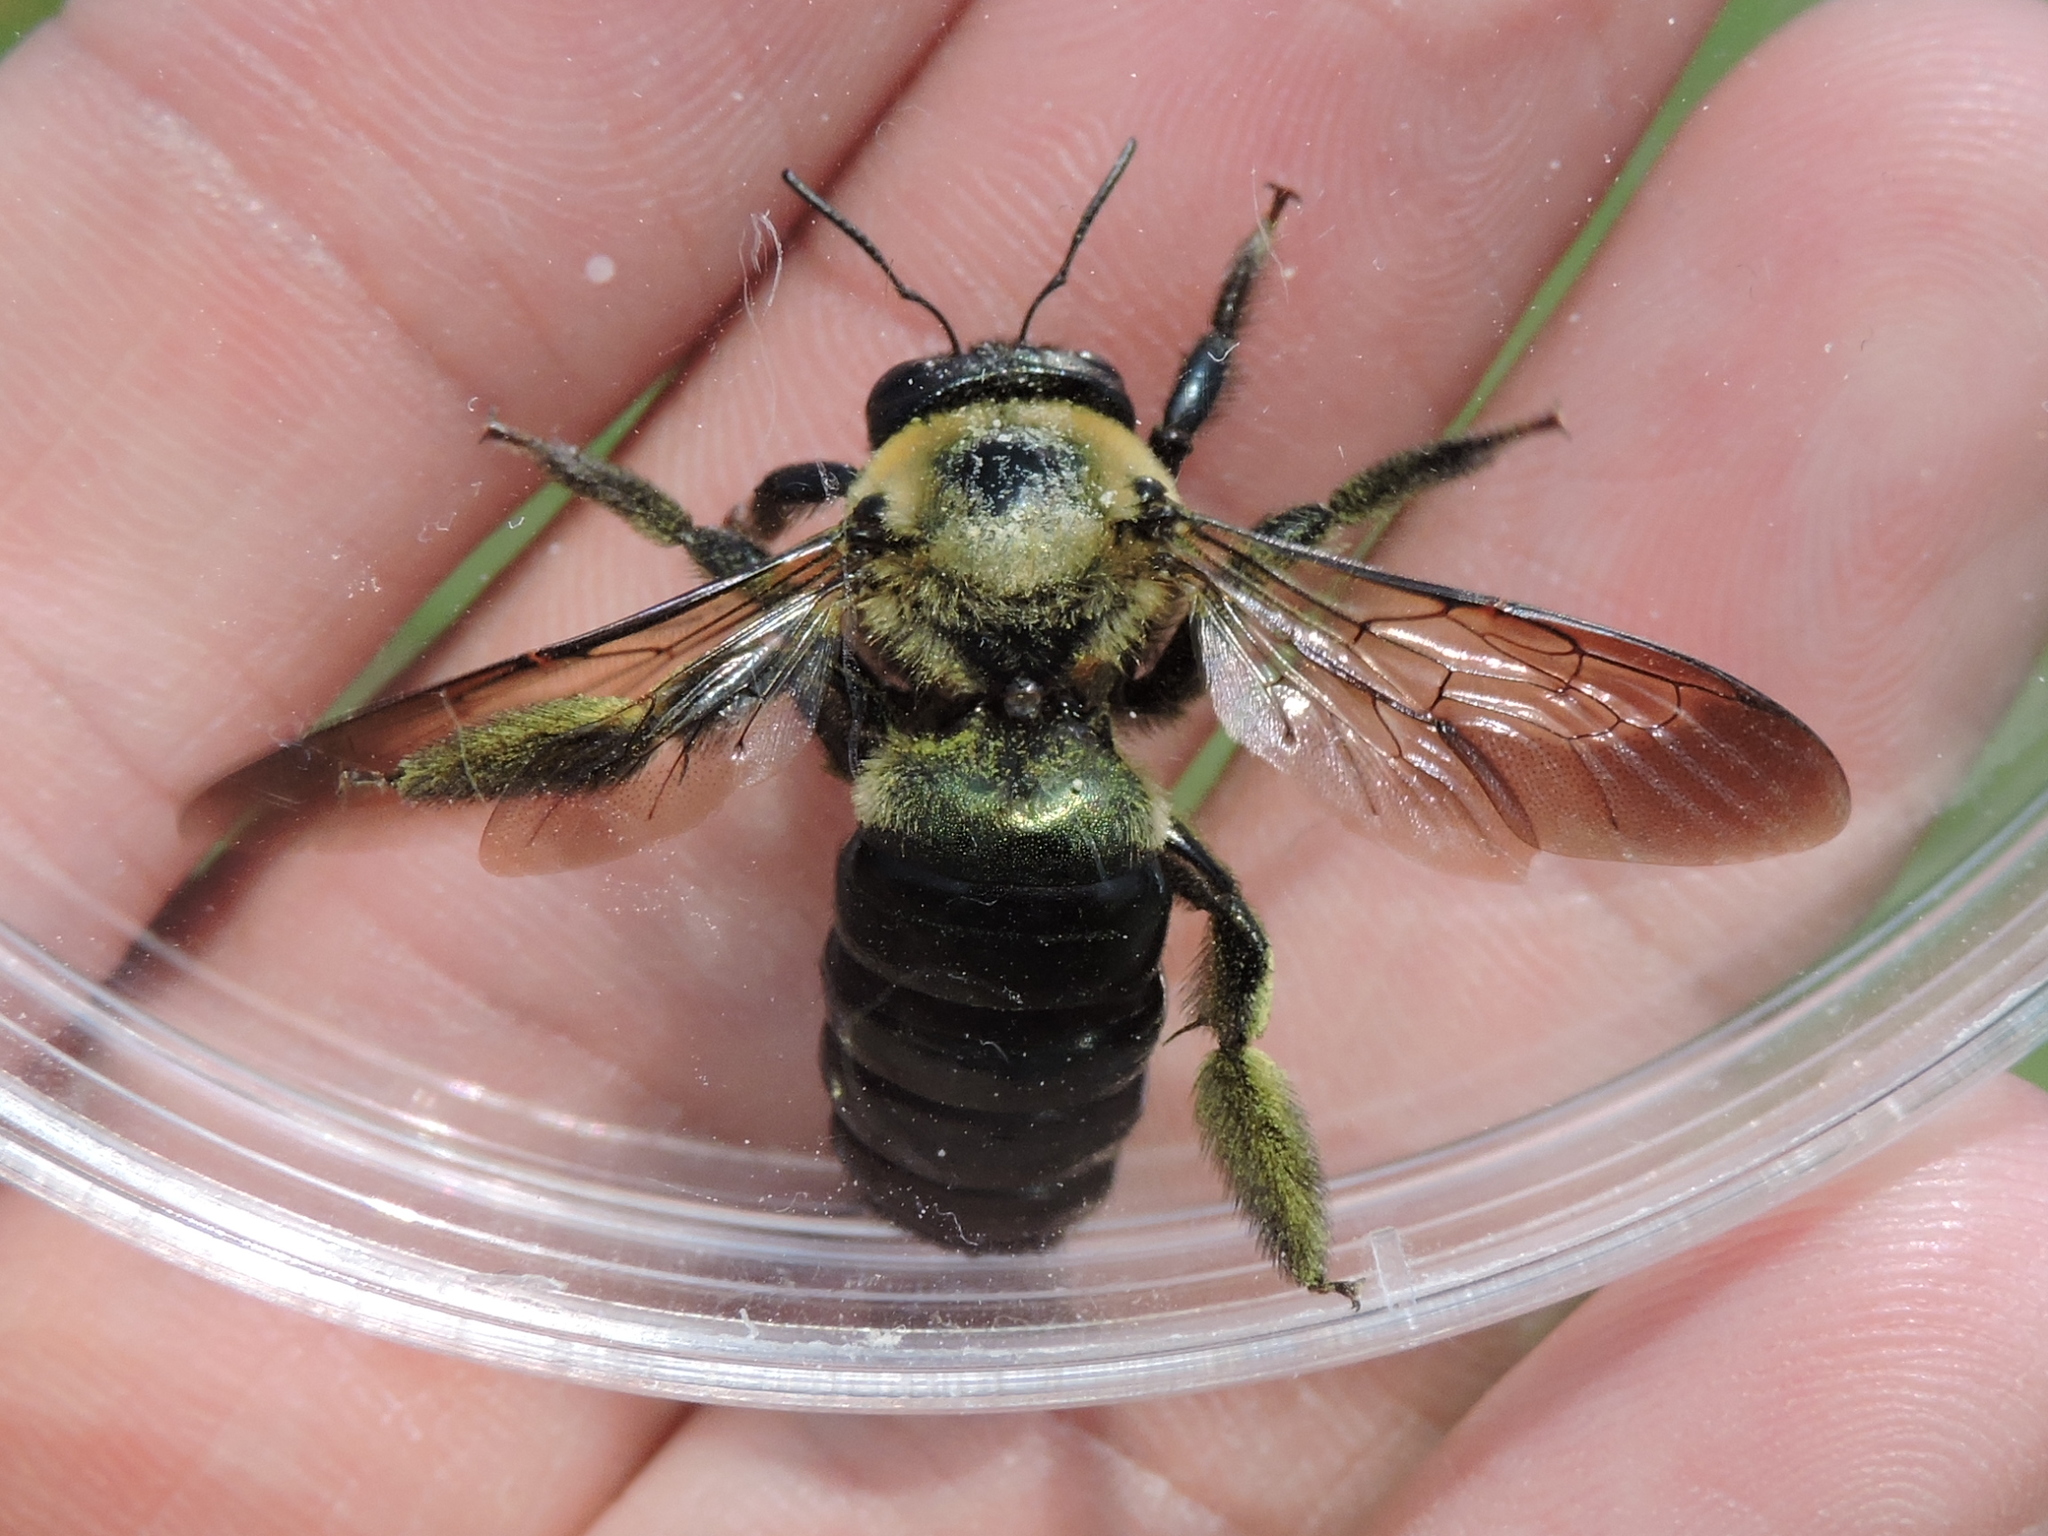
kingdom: Animalia
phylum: Arthropoda
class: Insecta
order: Hymenoptera
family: Apidae
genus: Xylocopa
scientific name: Xylocopa virginica
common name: Carpenter bee
